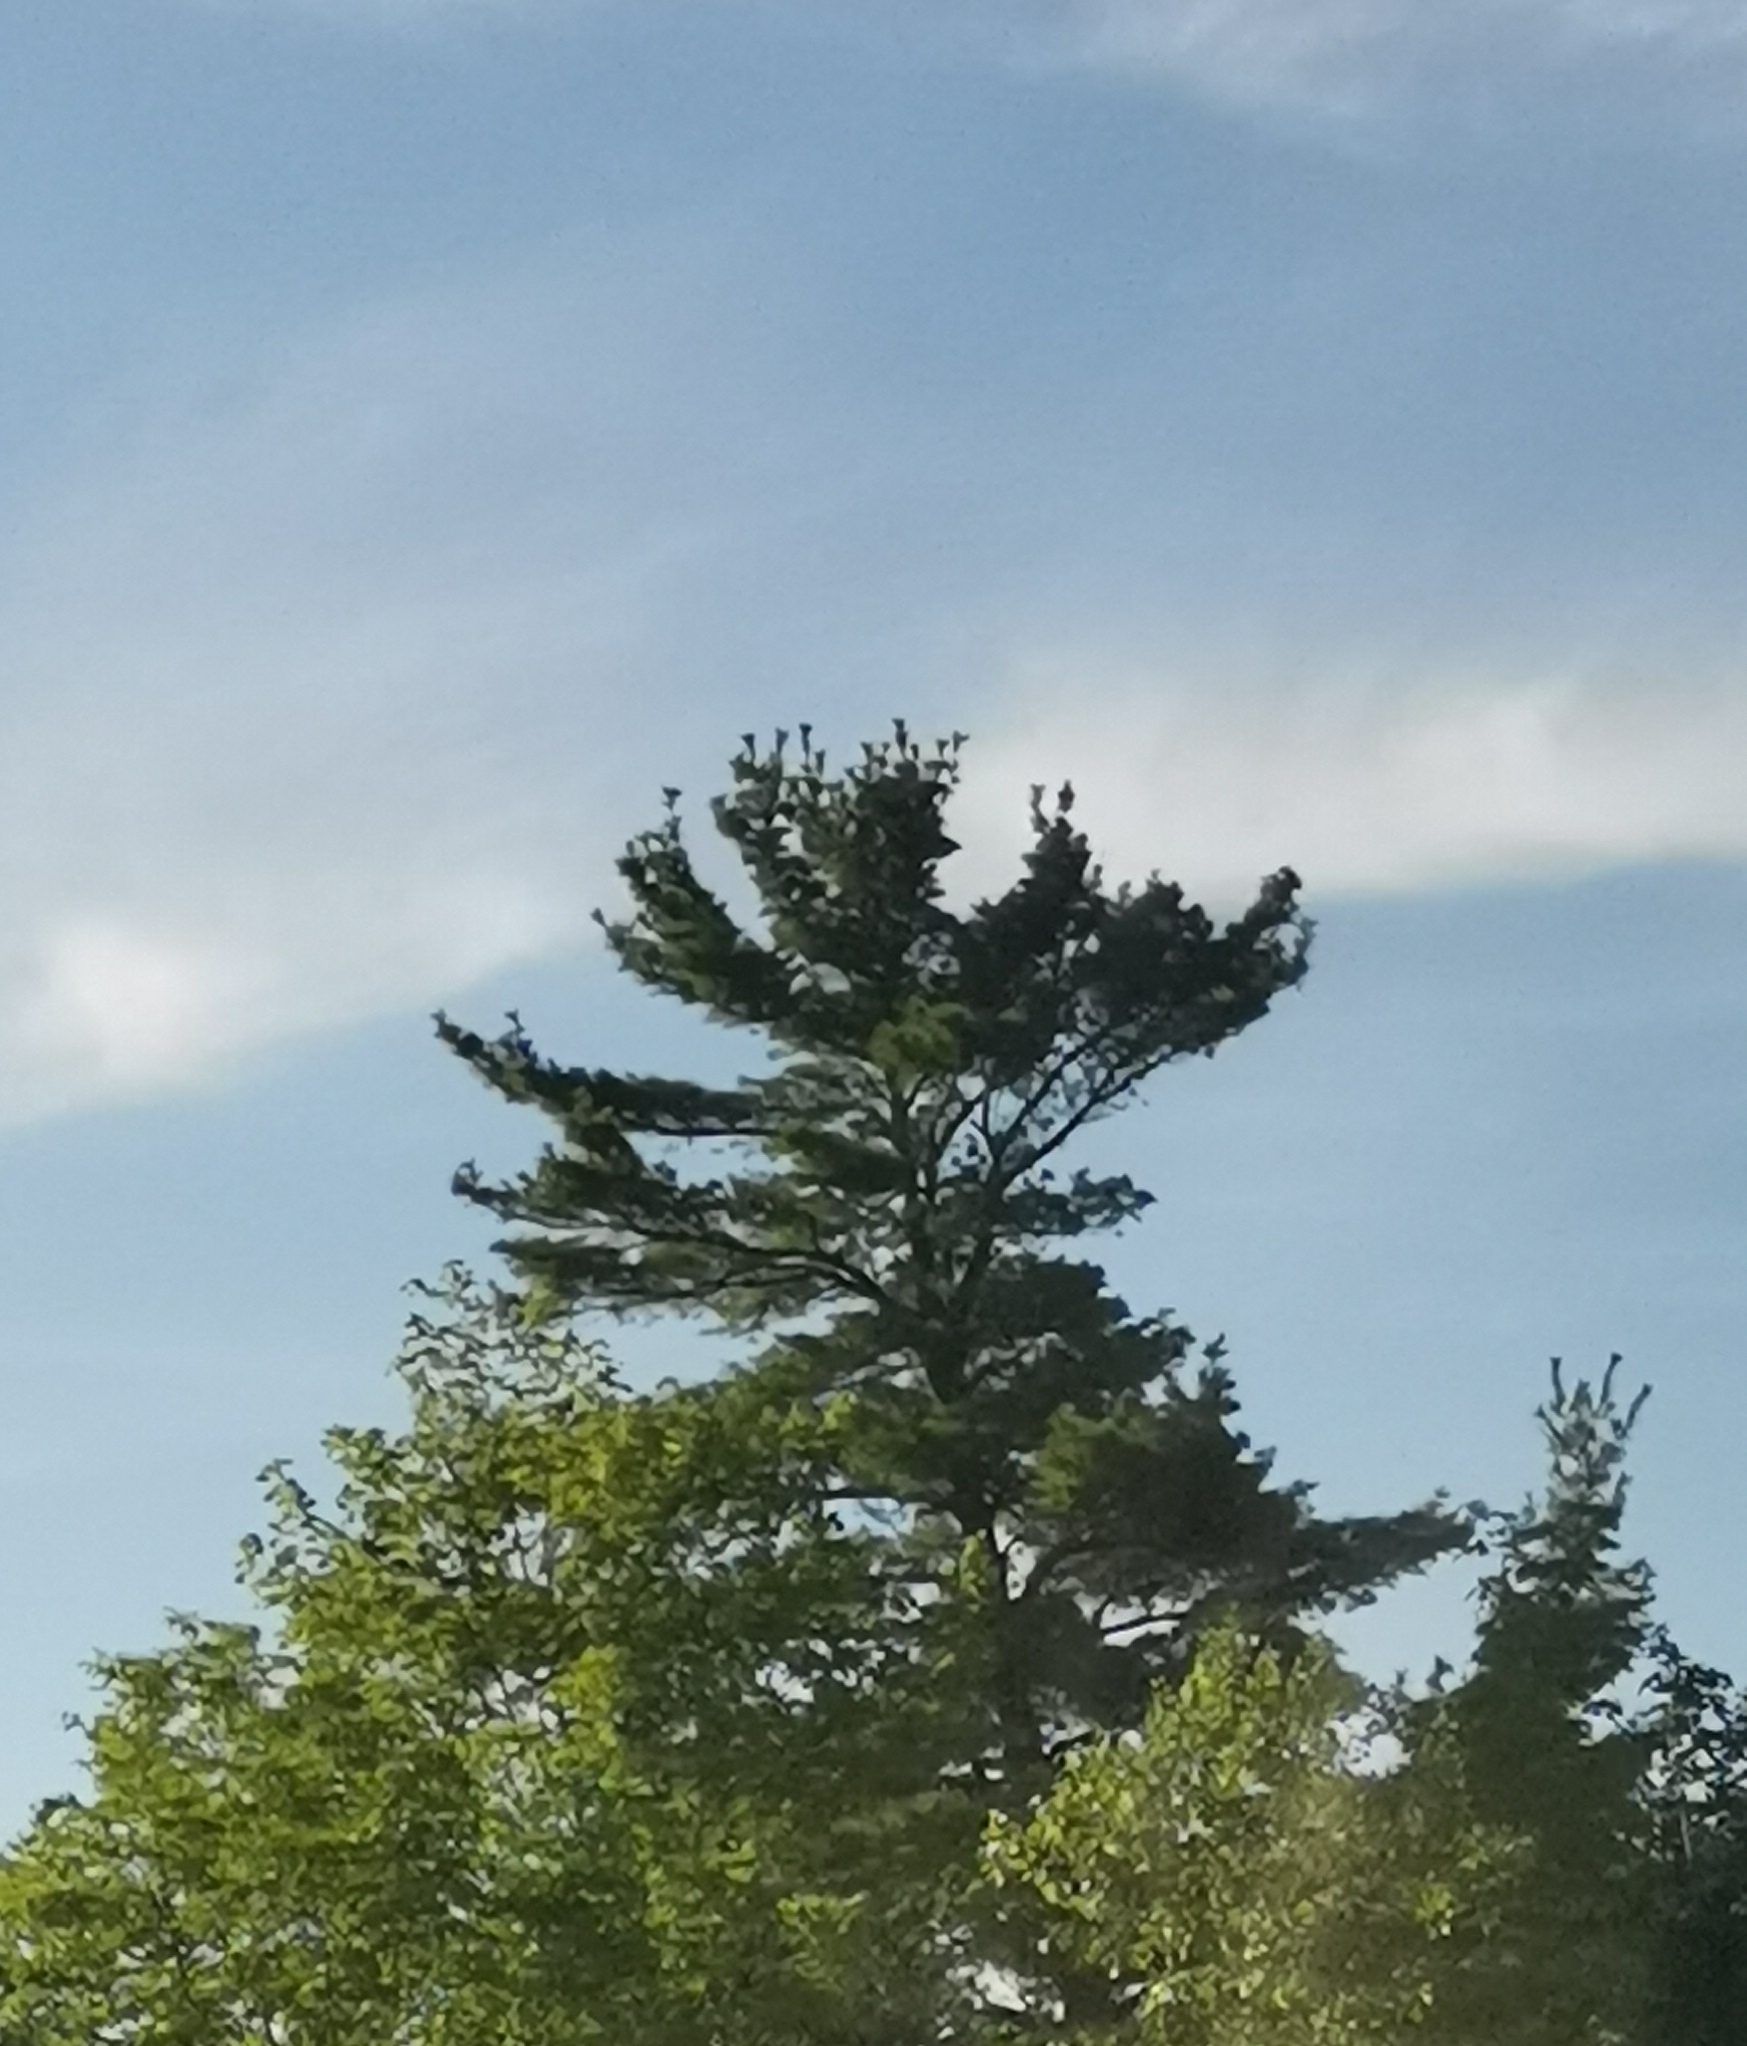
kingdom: Plantae
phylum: Tracheophyta
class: Pinopsida
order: Pinales
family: Pinaceae
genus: Pinus
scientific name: Pinus strobus
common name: Weymouth pine
